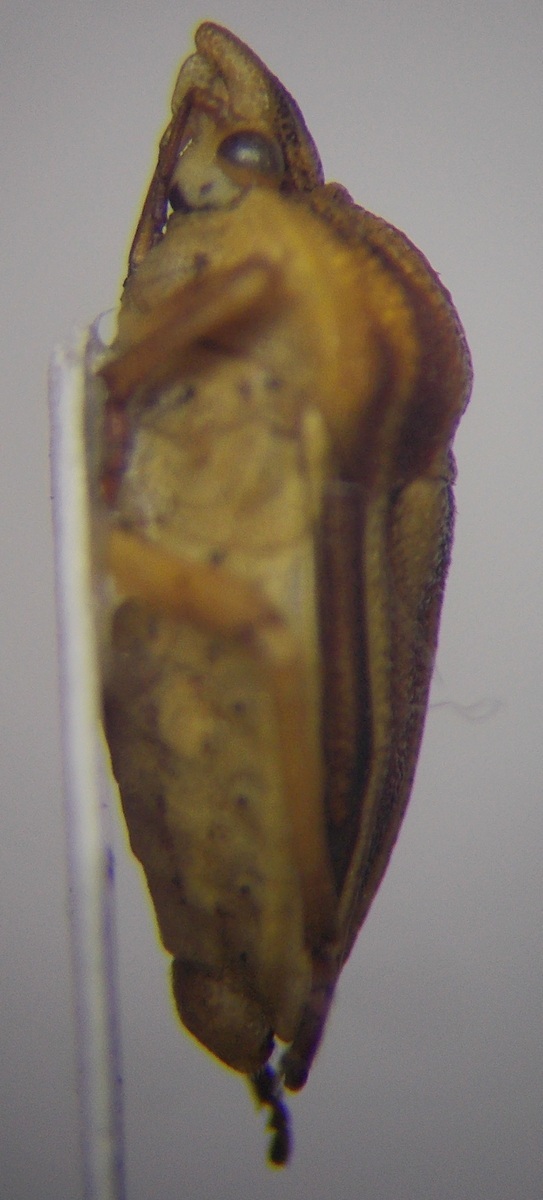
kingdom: Animalia
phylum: Arthropoda
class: Insecta
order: Hemiptera
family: Pentatomidae
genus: Tholagmus
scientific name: Tholagmus flavolineatus
